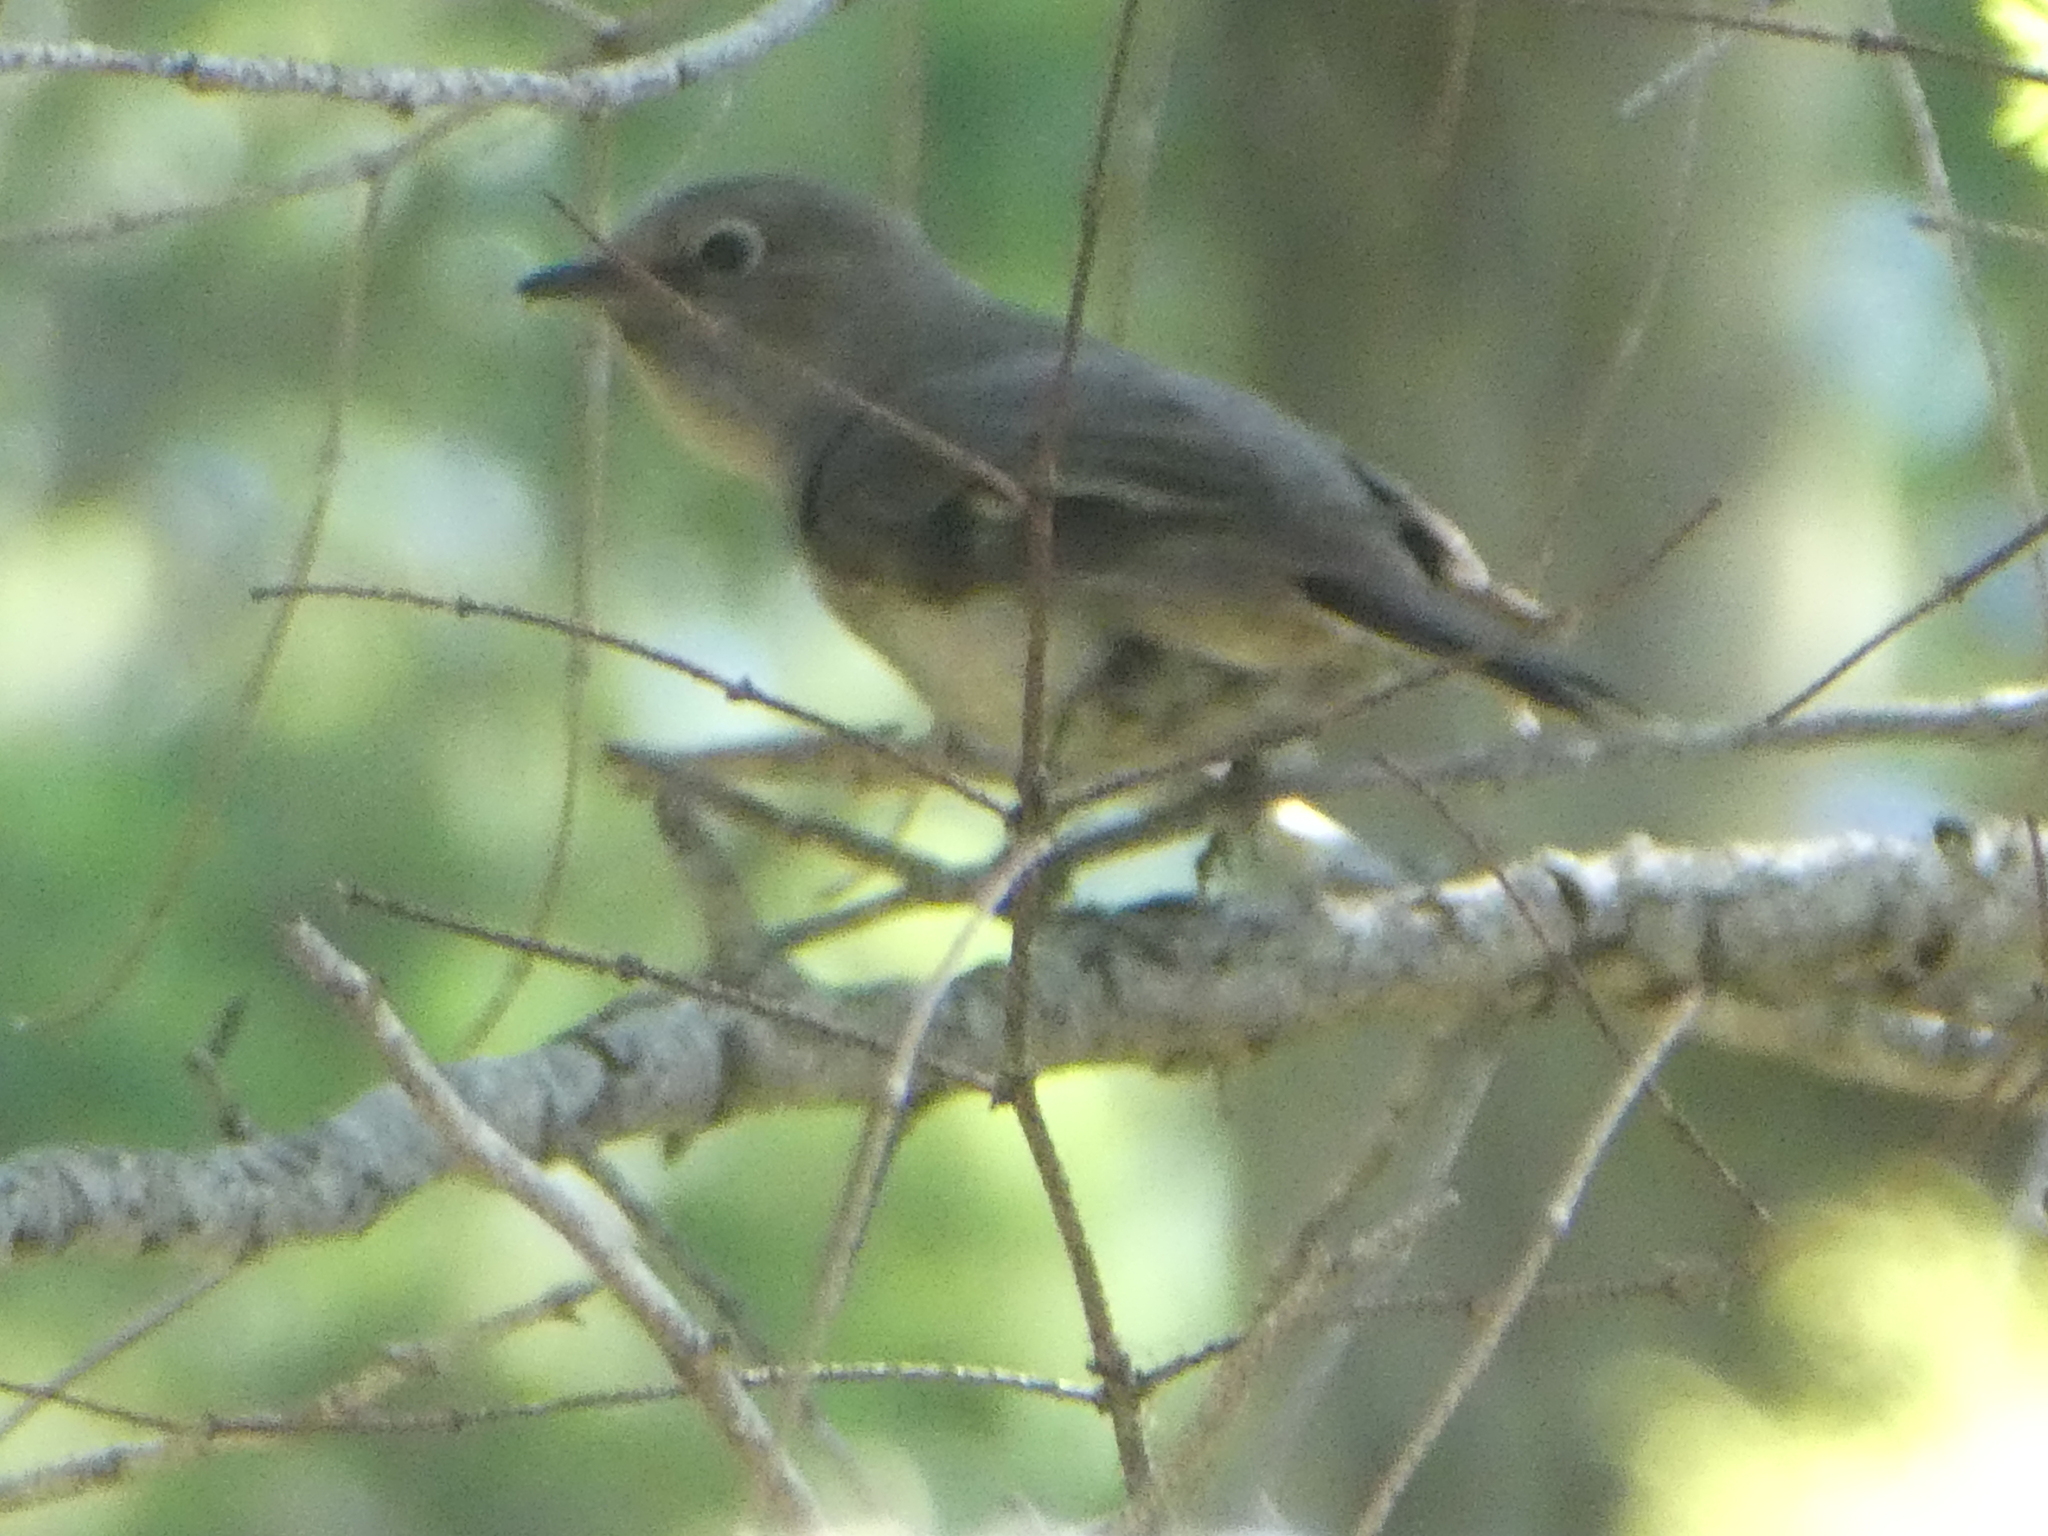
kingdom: Animalia
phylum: Chordata
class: Aves
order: Passeriformes
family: Turdidae
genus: Myadestes
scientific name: Myadestes townsendi
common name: Townsend's solitaire
